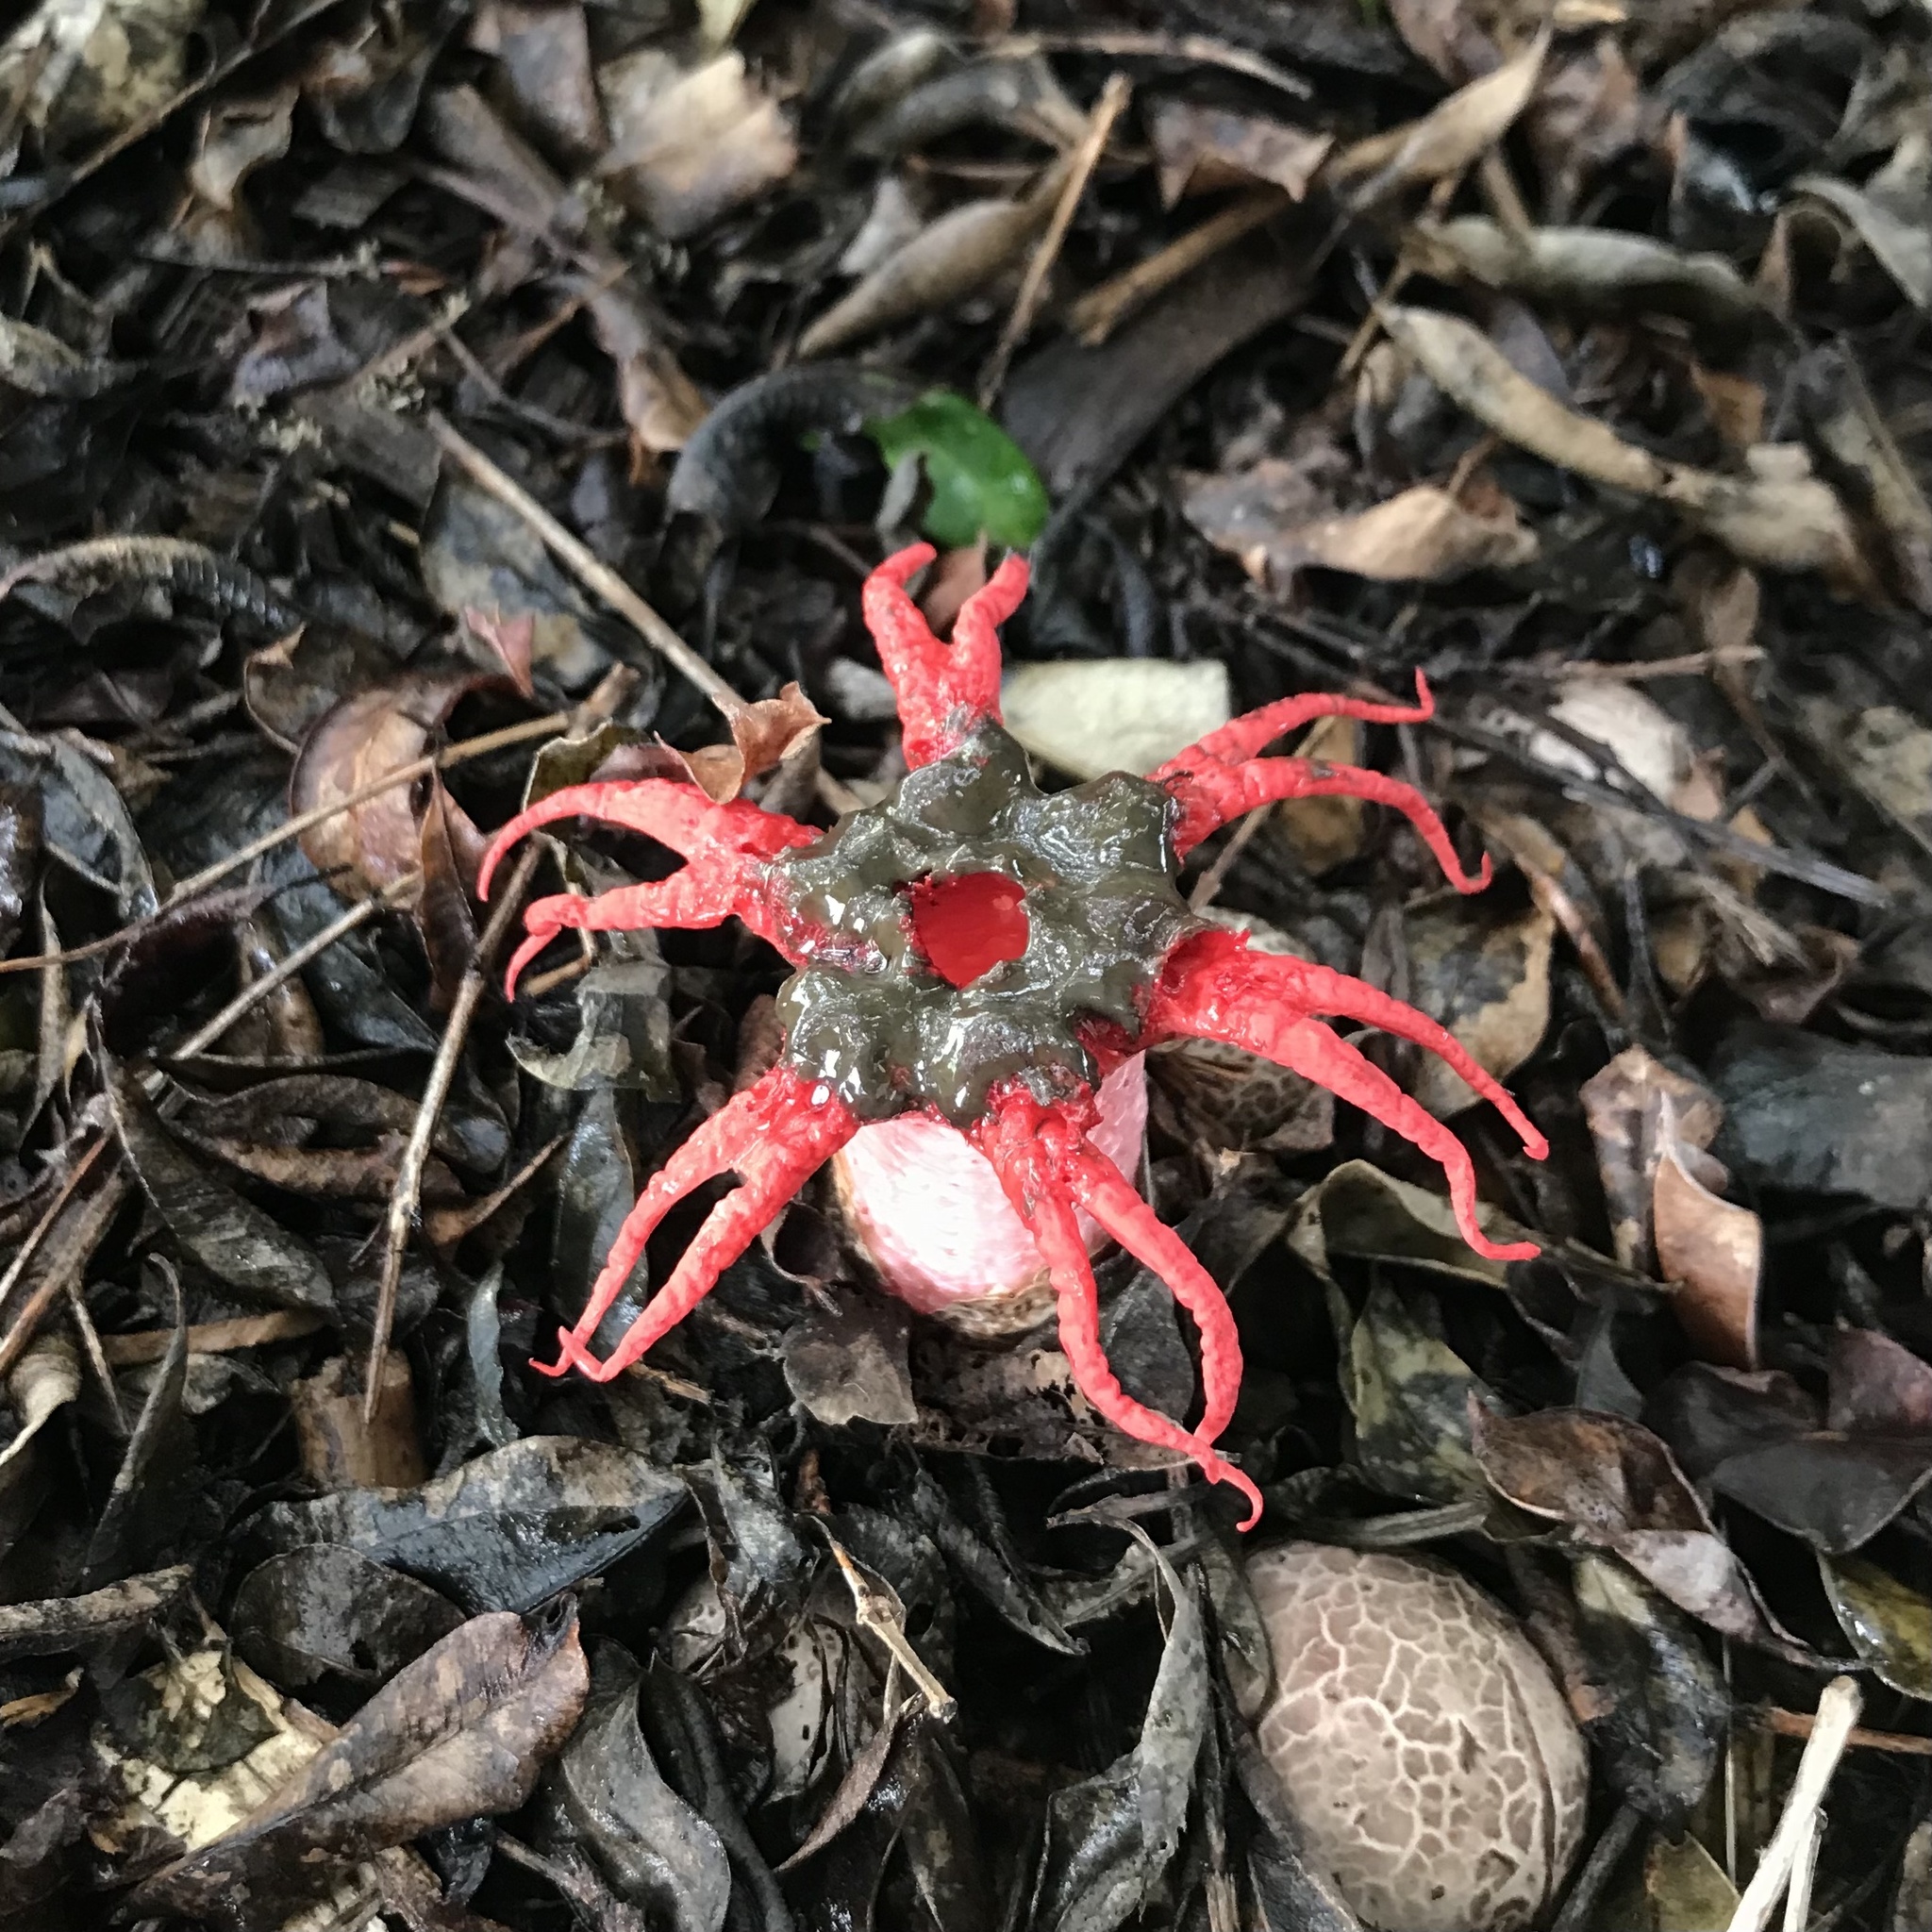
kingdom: Fungi
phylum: Basidiomycota
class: Agaricomycetes
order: Phallales
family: Phallaceae
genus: Aseroe
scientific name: Aseroe rubra
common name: Starfish fungus
